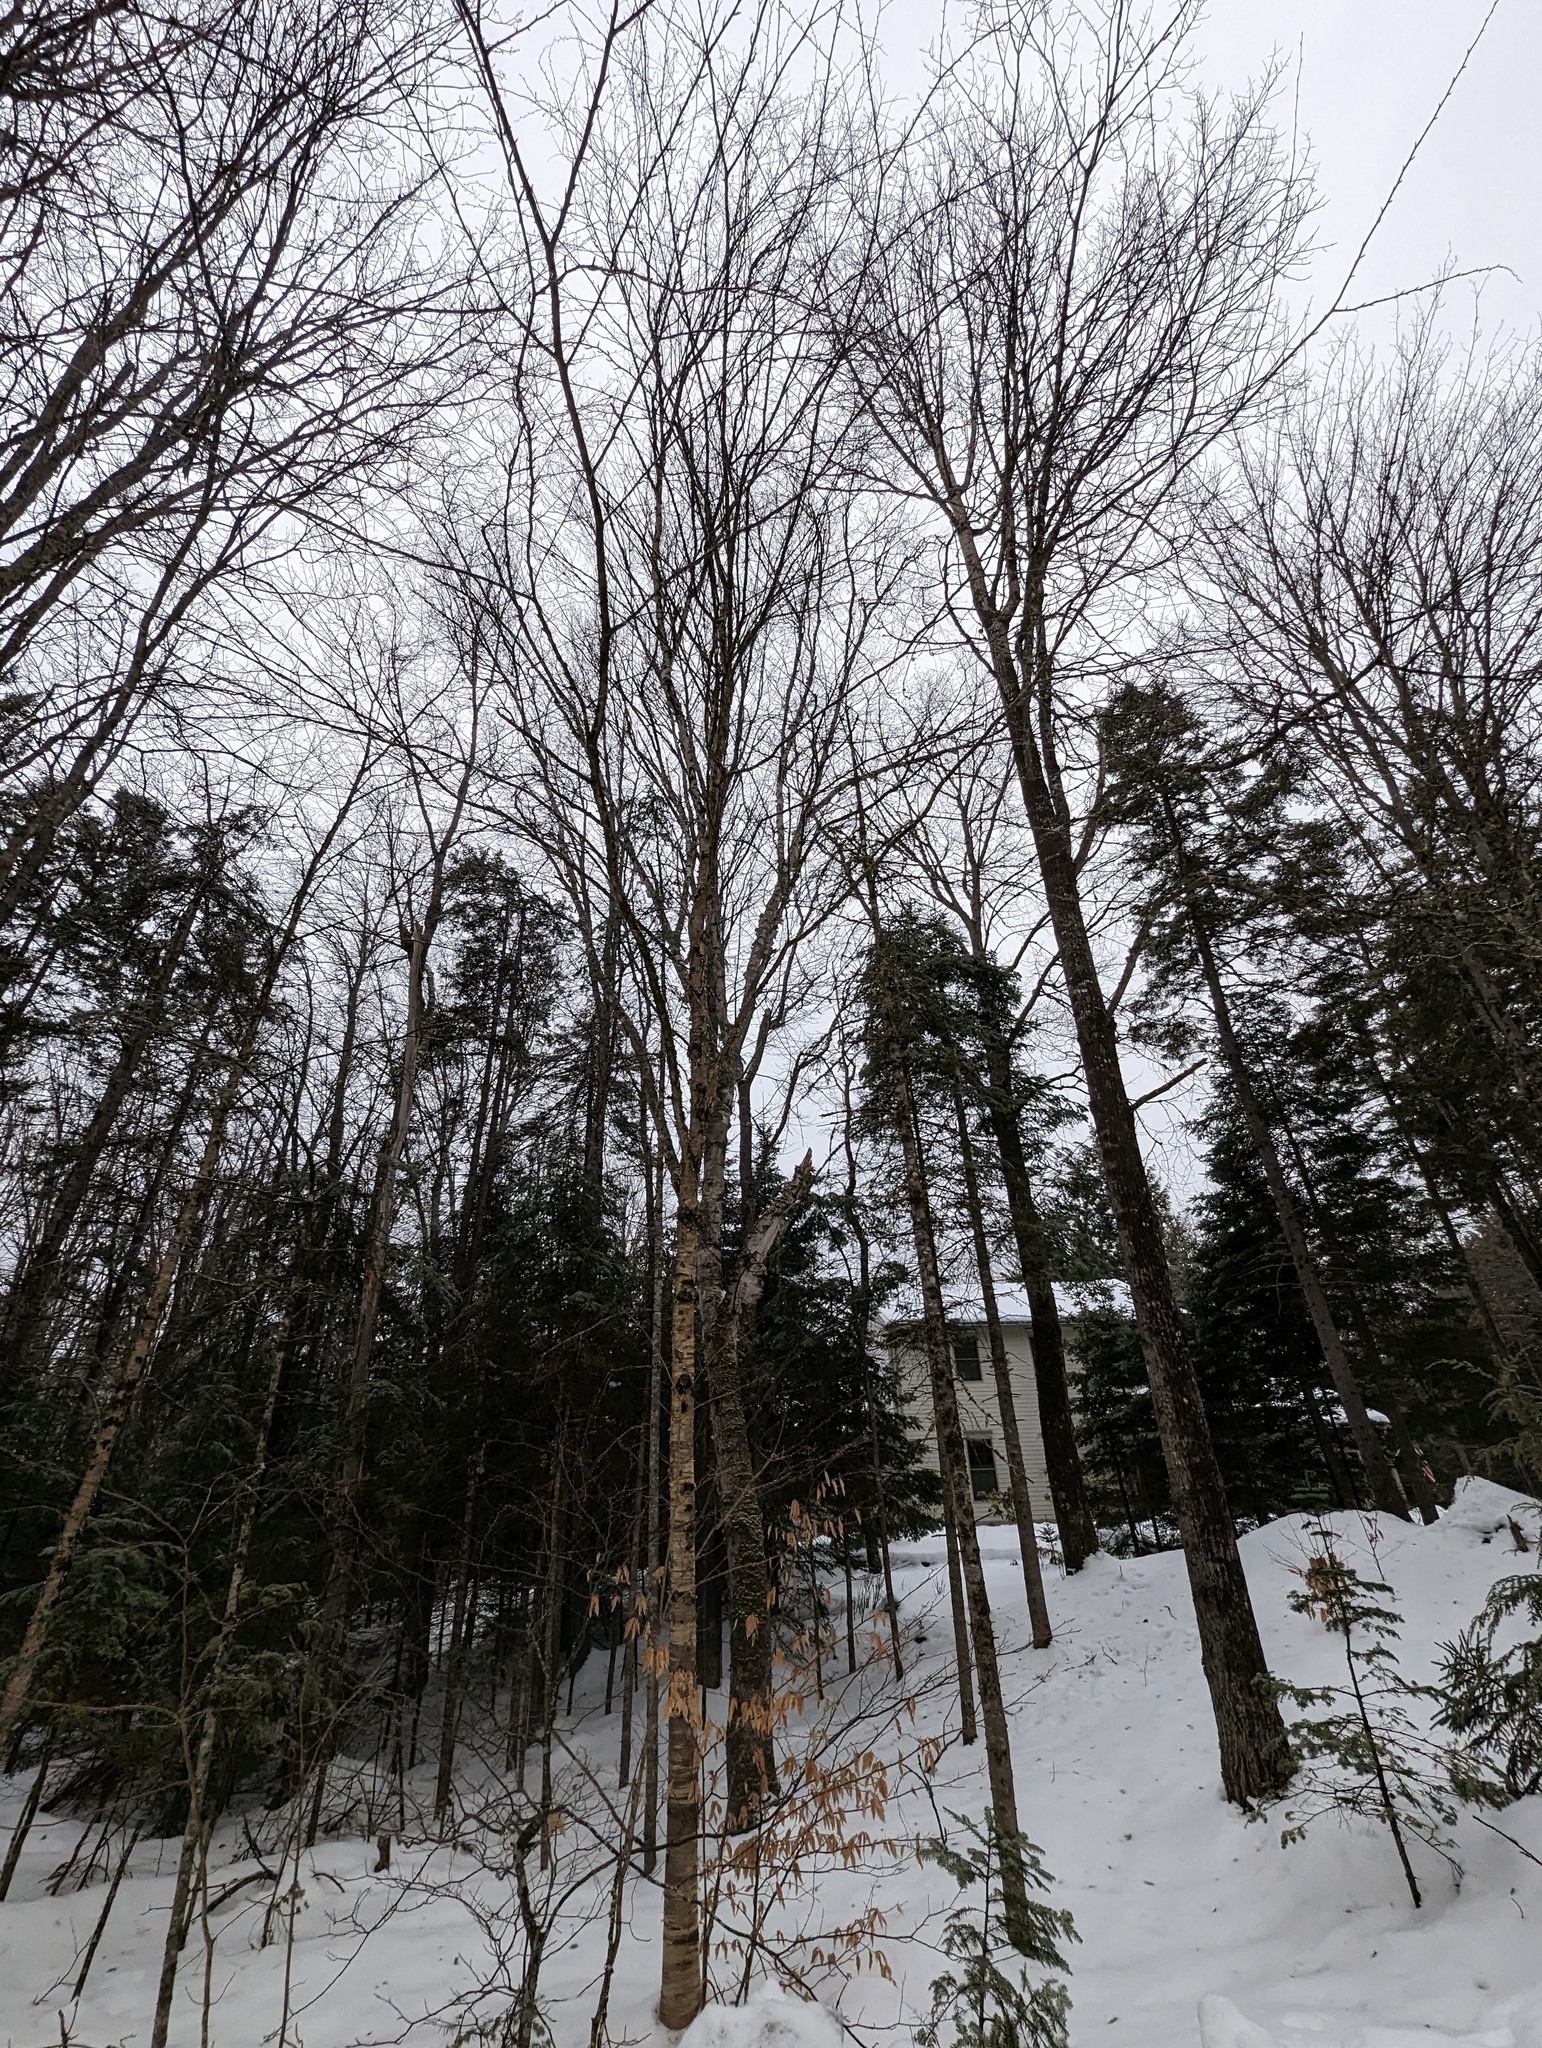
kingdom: Plantae
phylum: Tracheophyta
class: Magnoliopsida
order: Fagales
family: Betulaceae
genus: Betula
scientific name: Betula alleghaniensis
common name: Yellow birch
